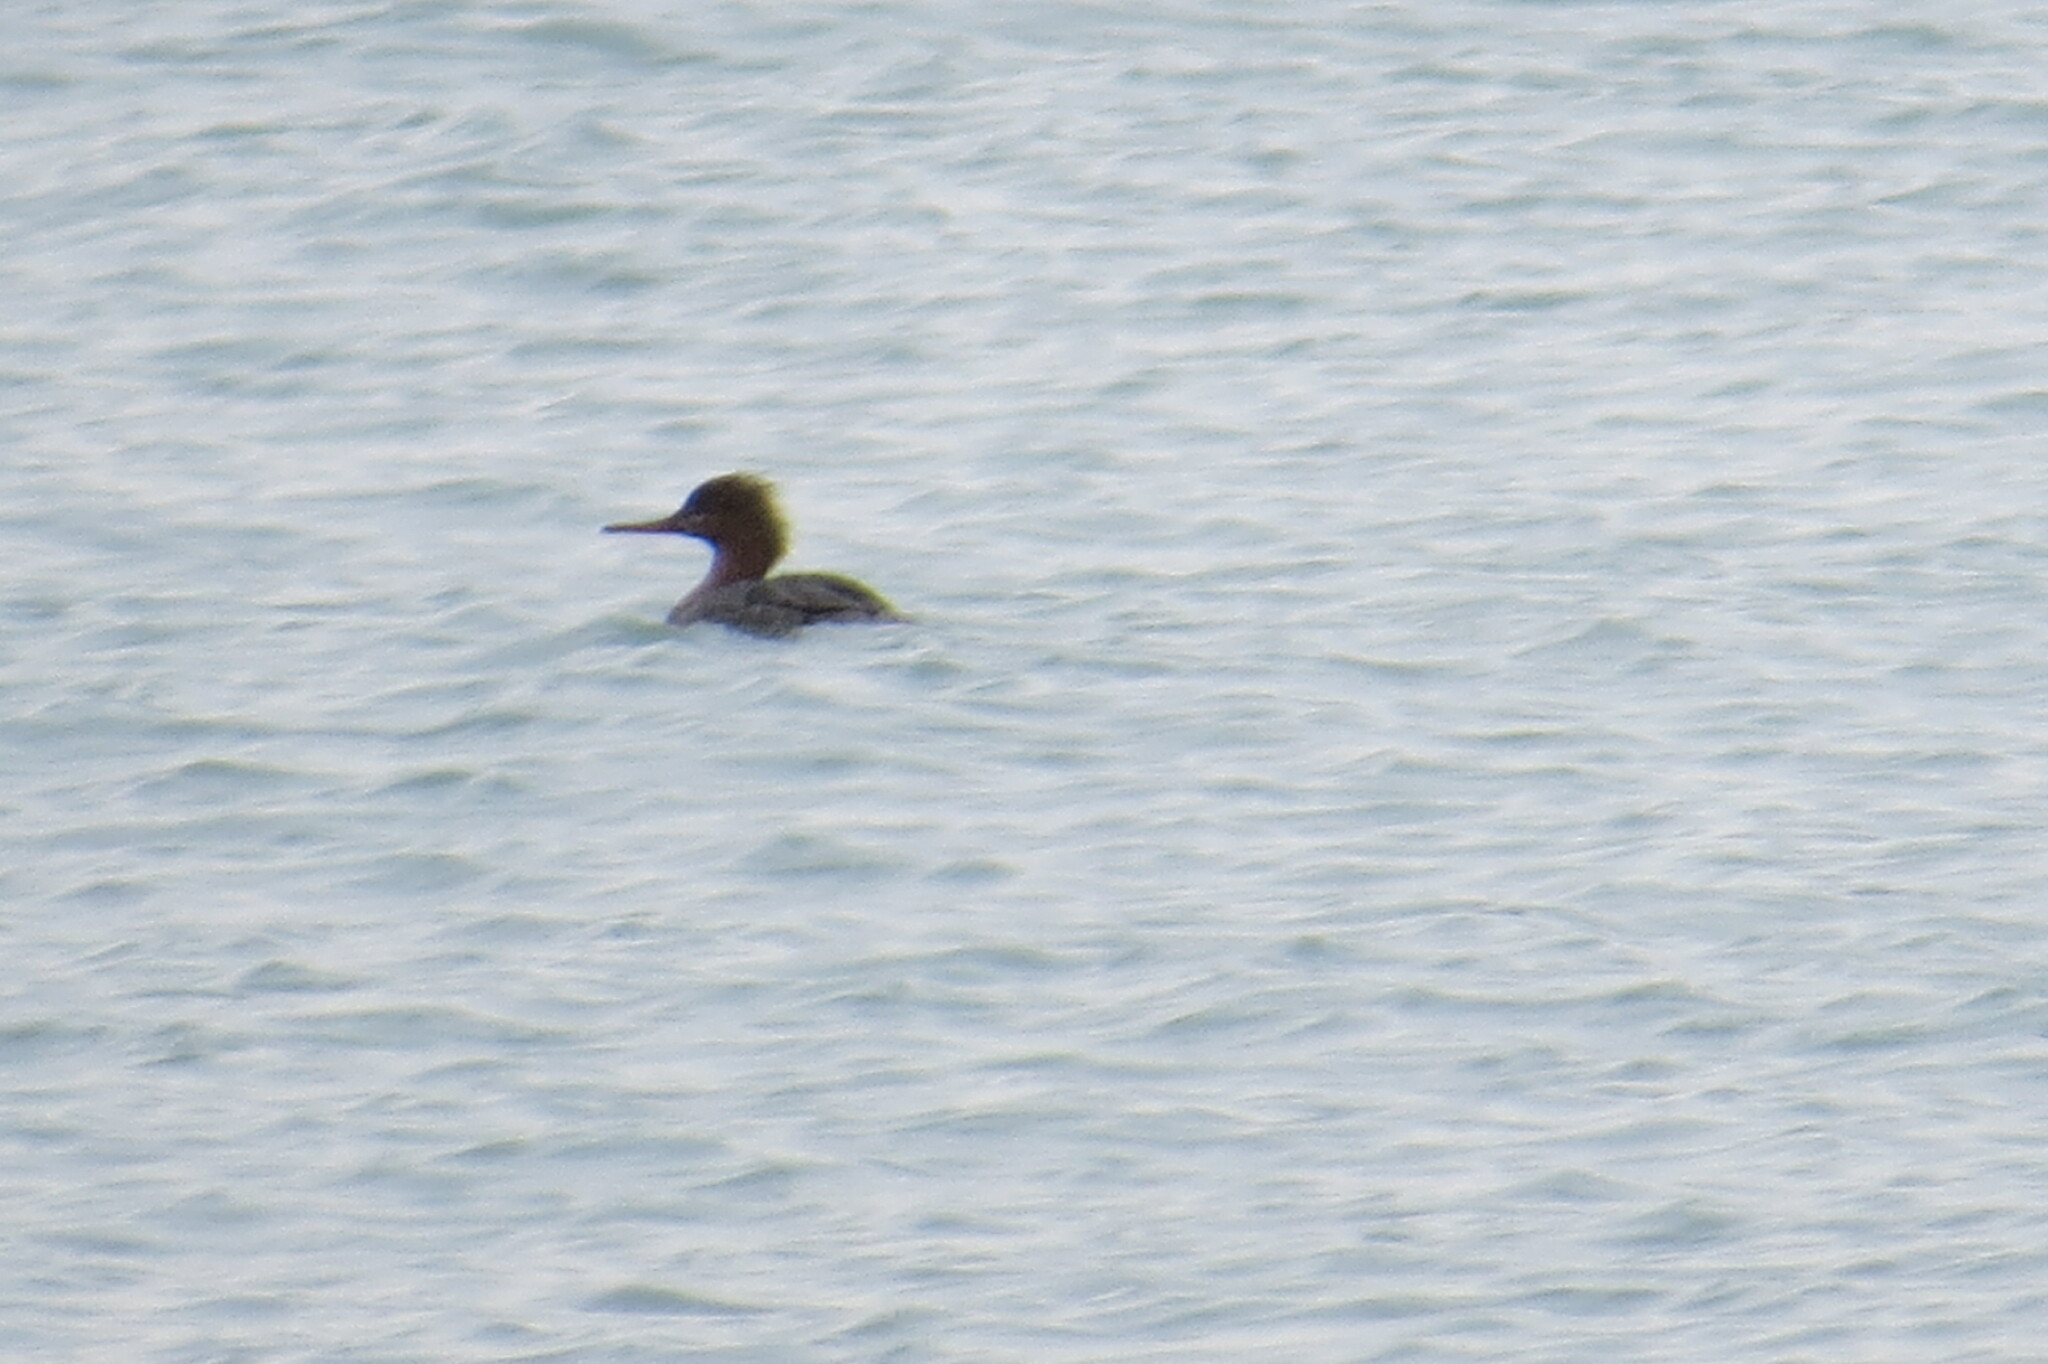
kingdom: Animalia
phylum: Chordata
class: Aves
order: Anseriformes
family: Anatidae
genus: Mergus
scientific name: Mergus serrator
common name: Red-breasted merganser
